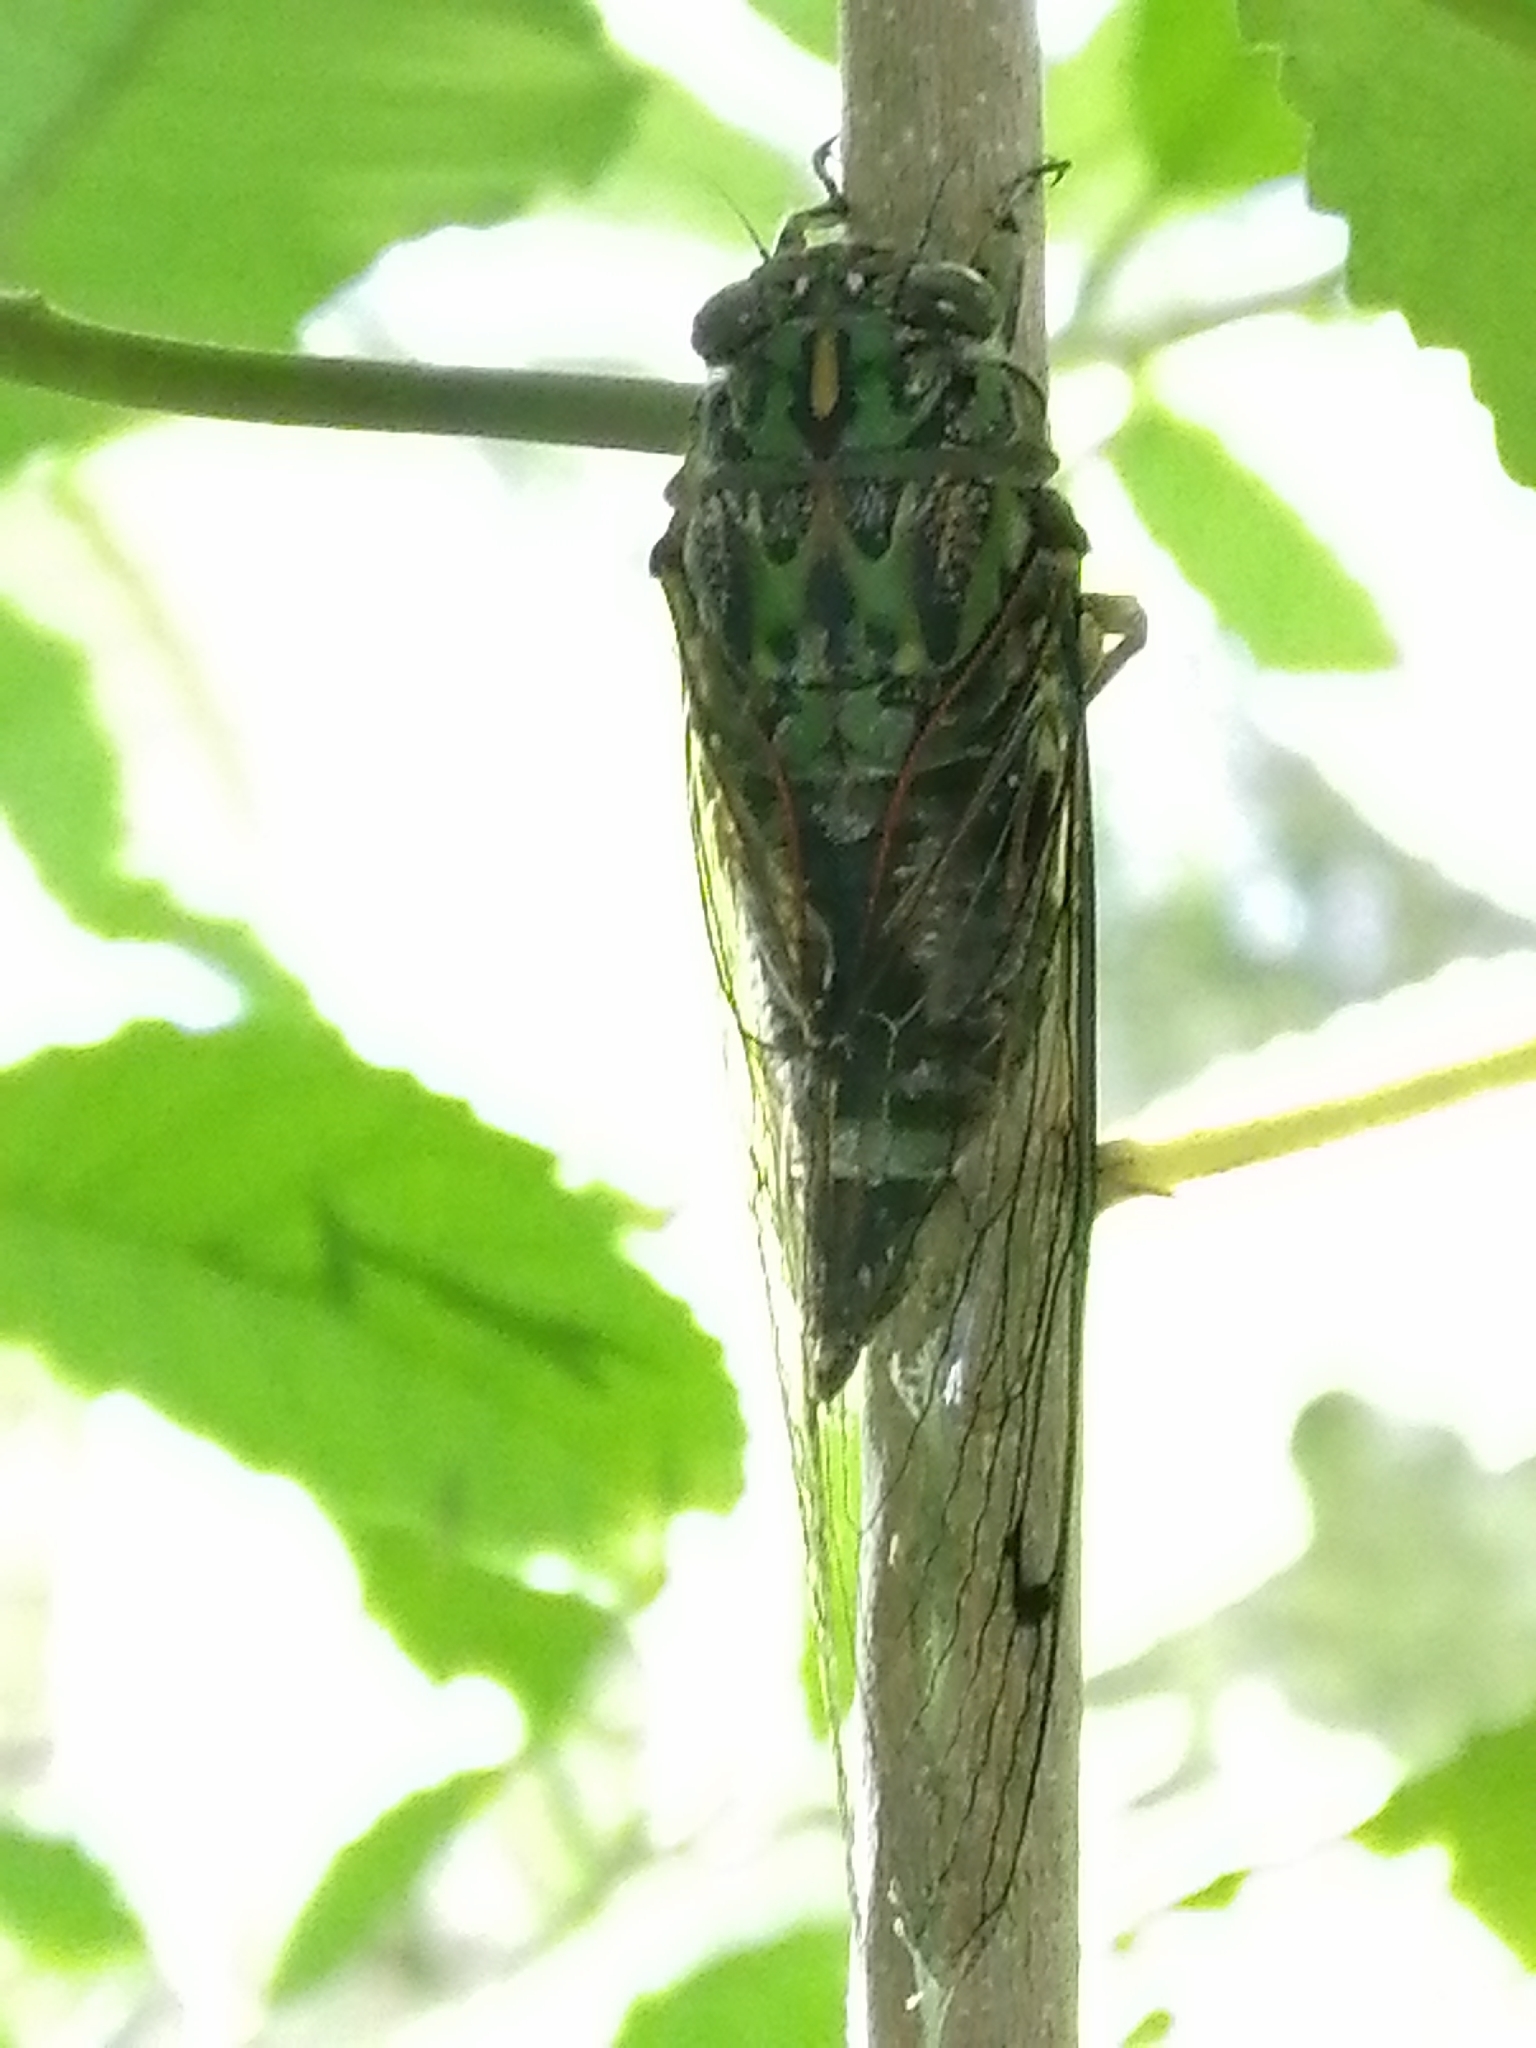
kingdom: Animalia
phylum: Arthropoda
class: Insecta
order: Hemiptera
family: Cicadidae
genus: Amphipsalta
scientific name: Amphipsalta zelandica
